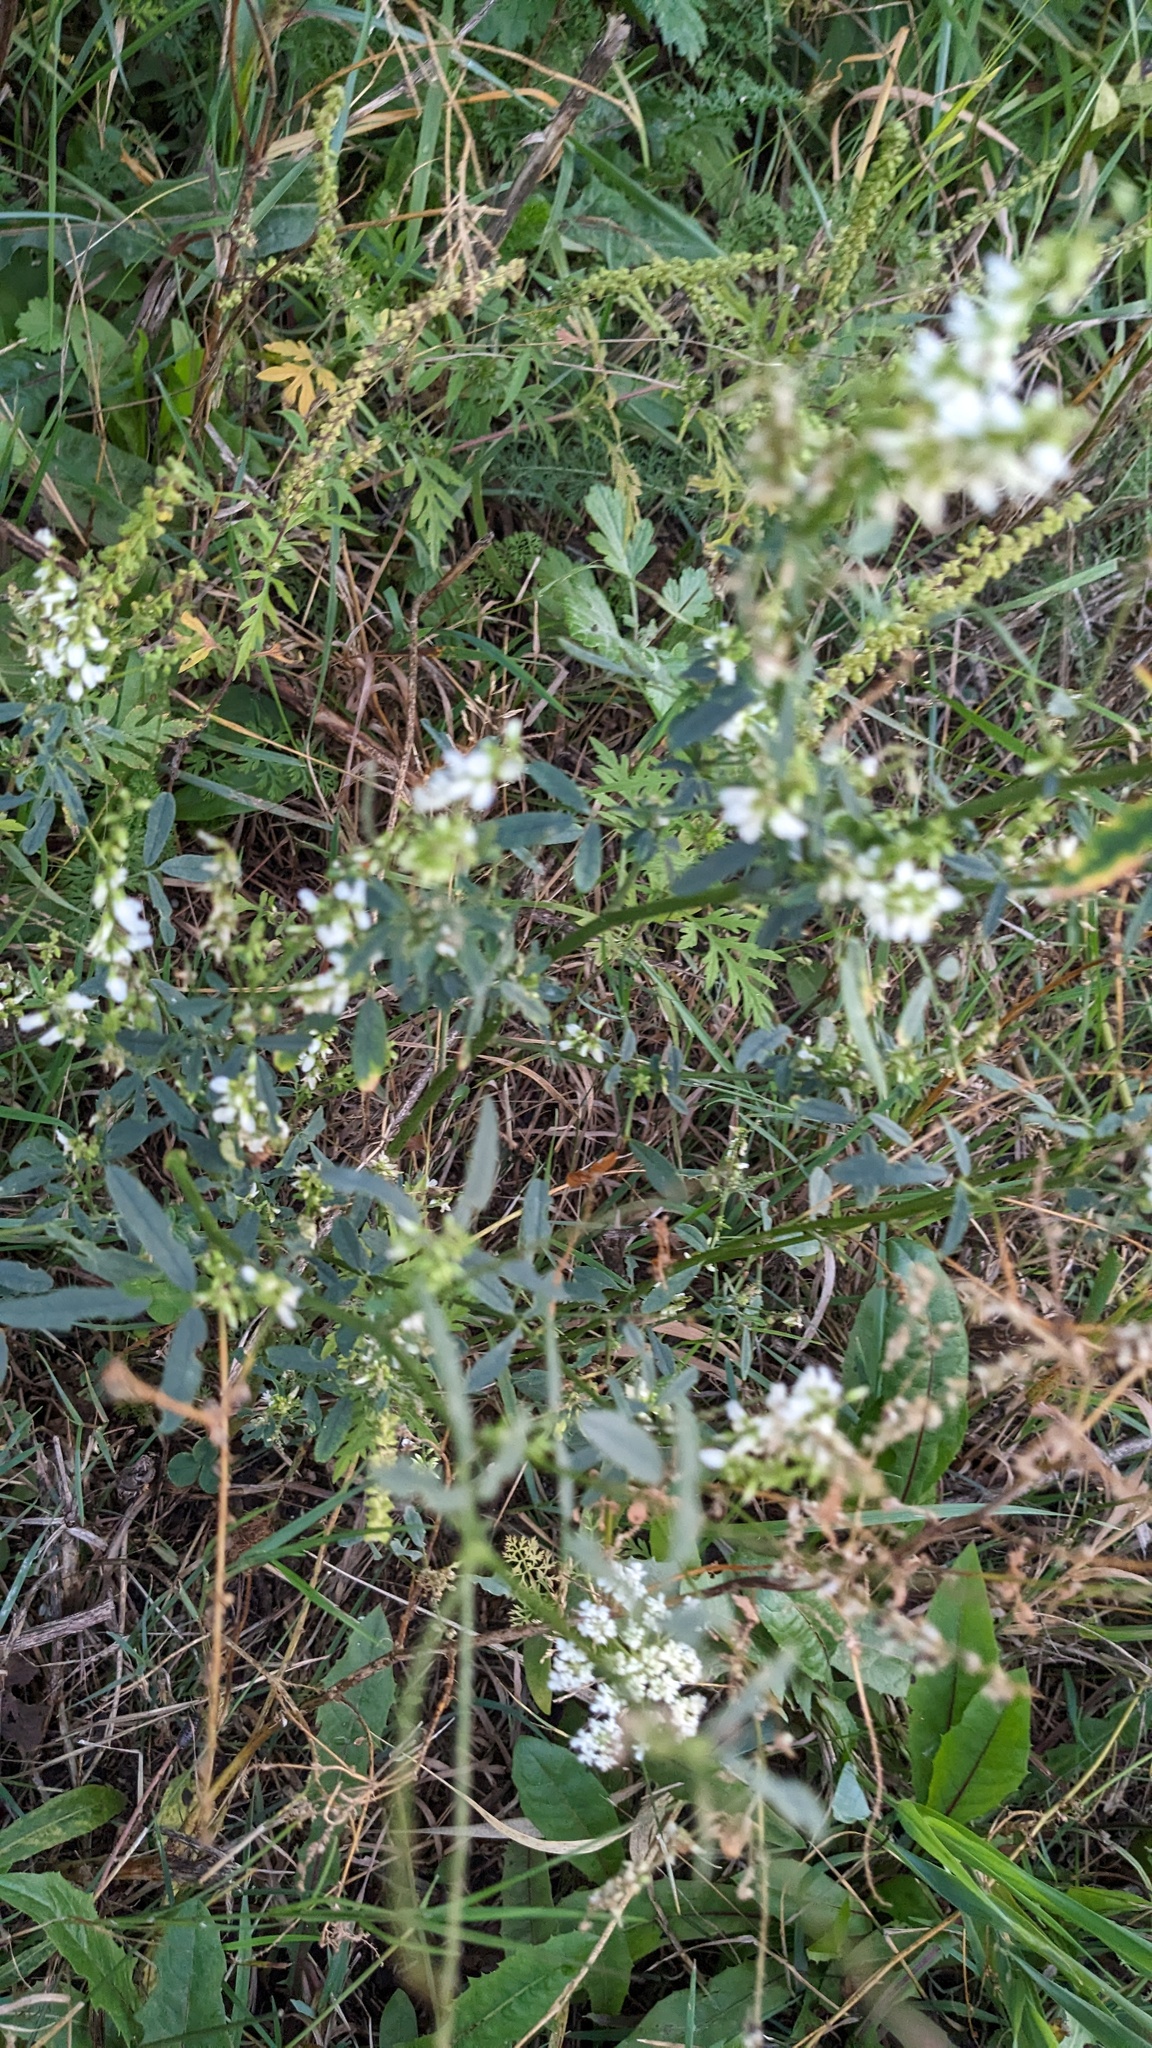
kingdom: Plantae
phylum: Tracheophyta
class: Magnoliopsida
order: Fabales
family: Fabaceae
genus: Melilotus
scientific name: Melilotus albus
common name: White melilot
